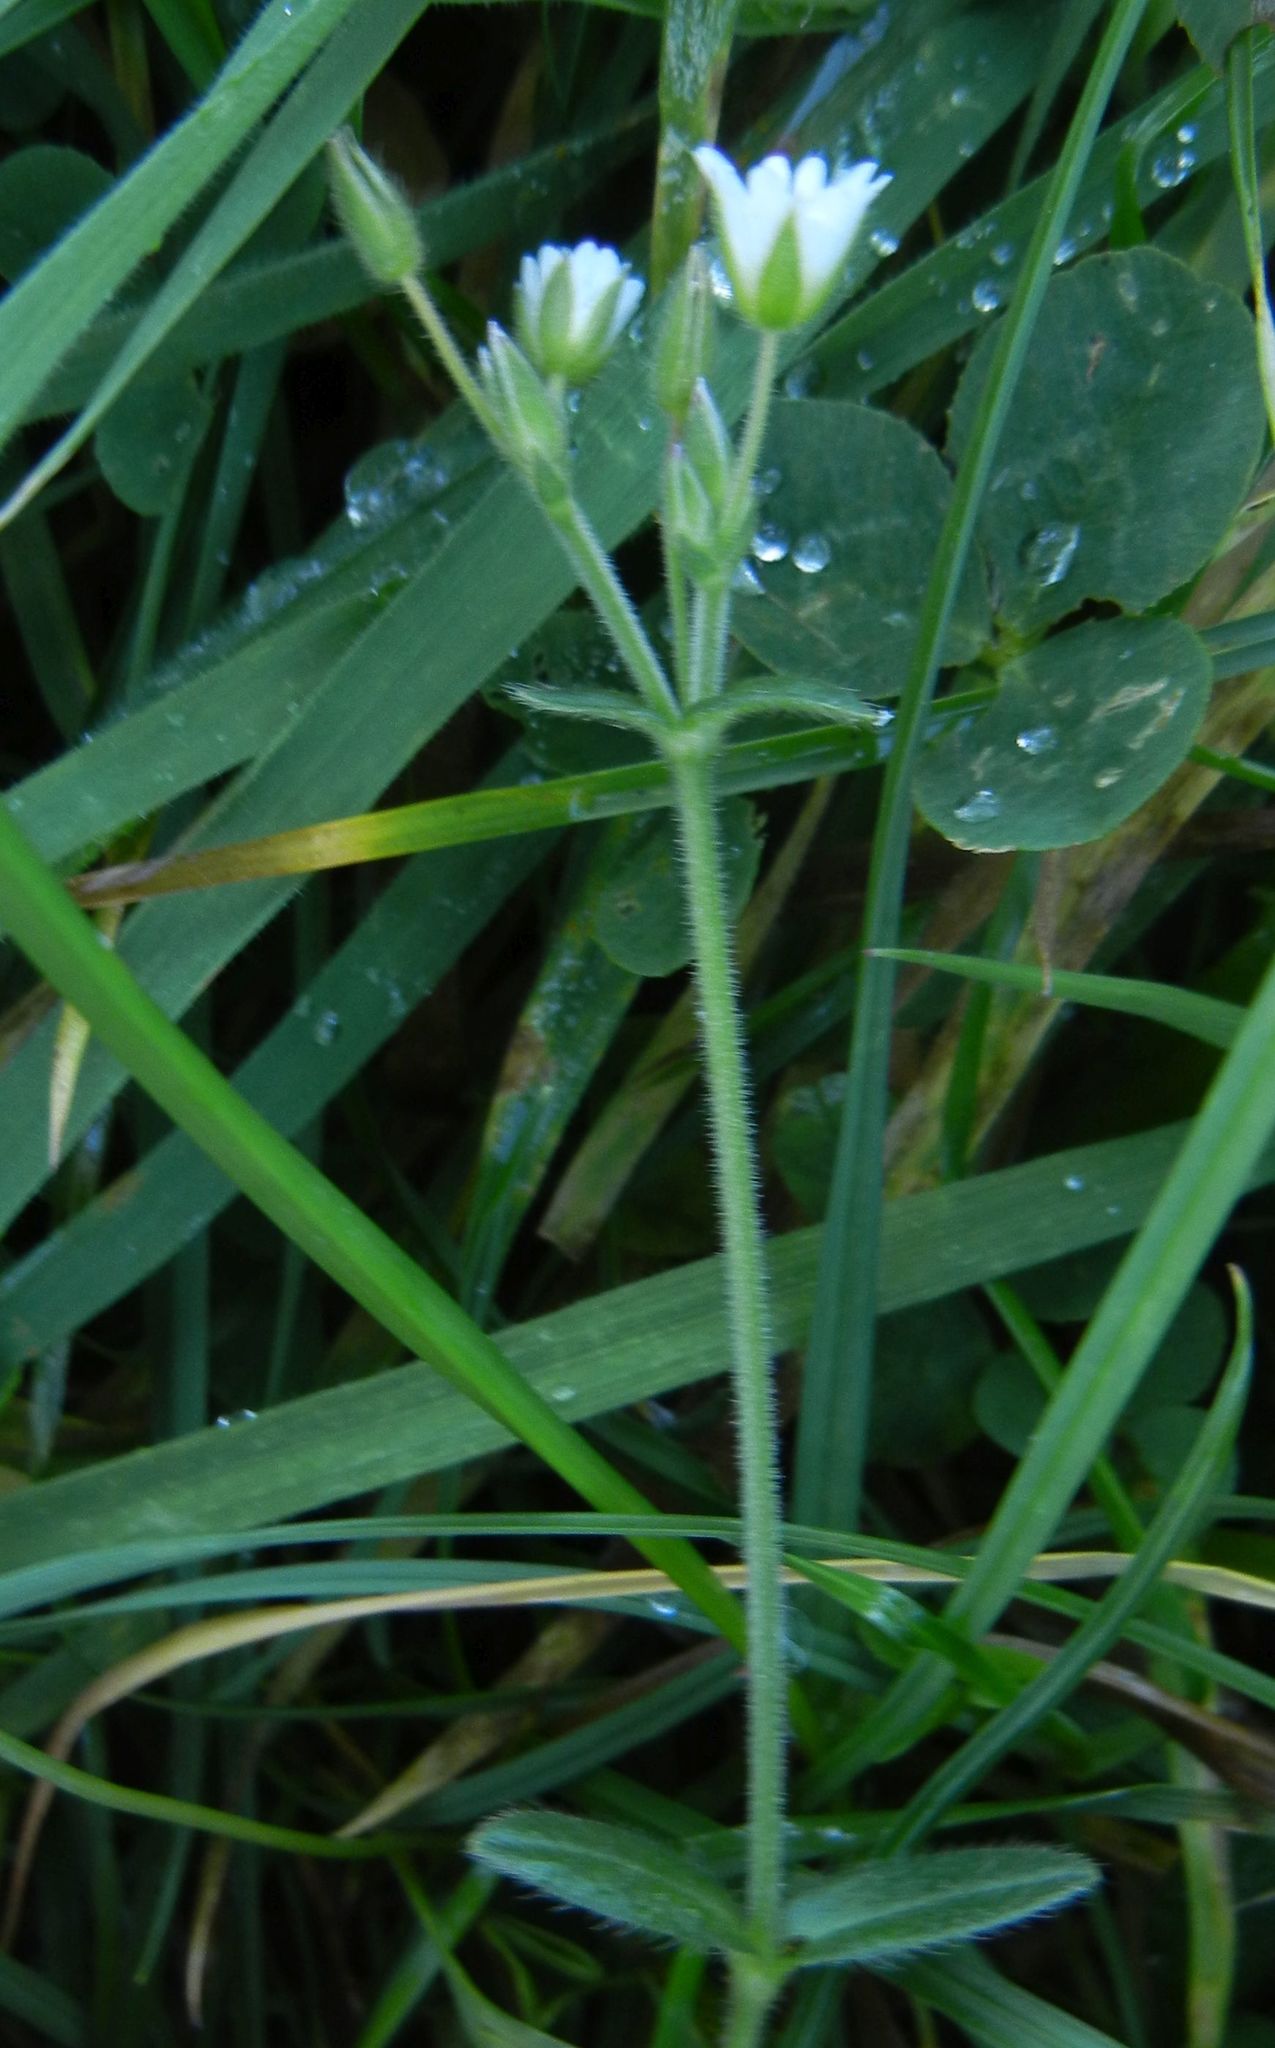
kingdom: Plantae
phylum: Tracheophyta
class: Magnoliopsida
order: Caryophyllales
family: Caryophyllaceae
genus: Cerastium
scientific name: Cerastium fontanum
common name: Common mouse-ear
